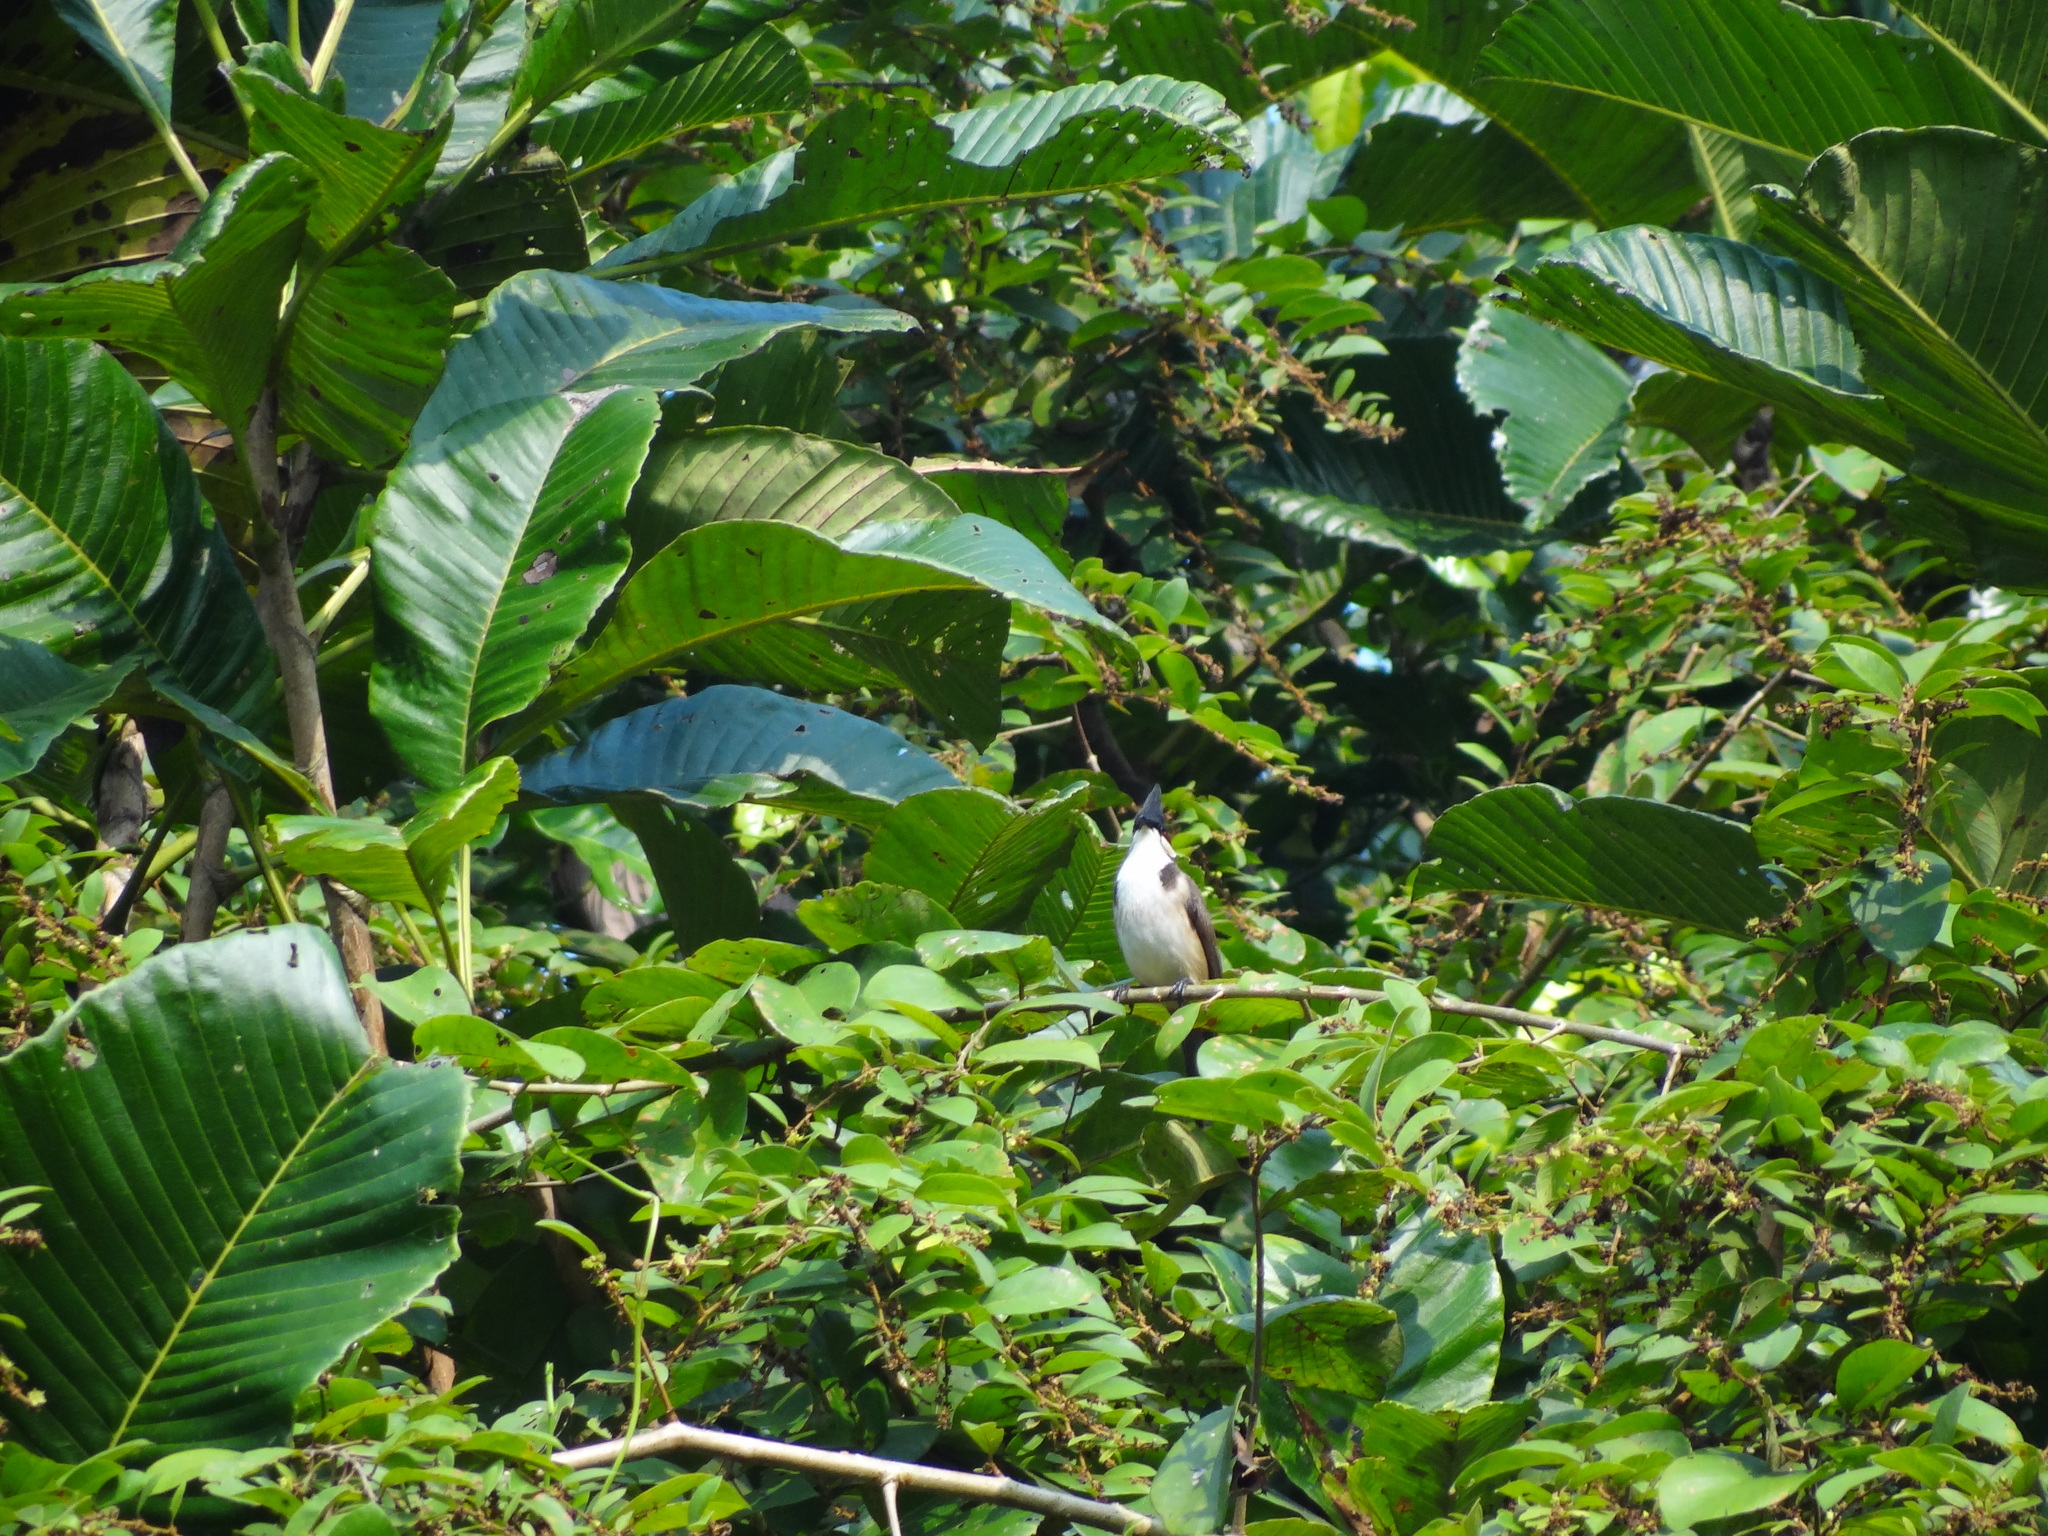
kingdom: Animalia
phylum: Chordata
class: Aves
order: Passeriformes
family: Pycnonotidae
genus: Pycnonotus
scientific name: Pycnonotus jocosus
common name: Red-whiskered bulbul
